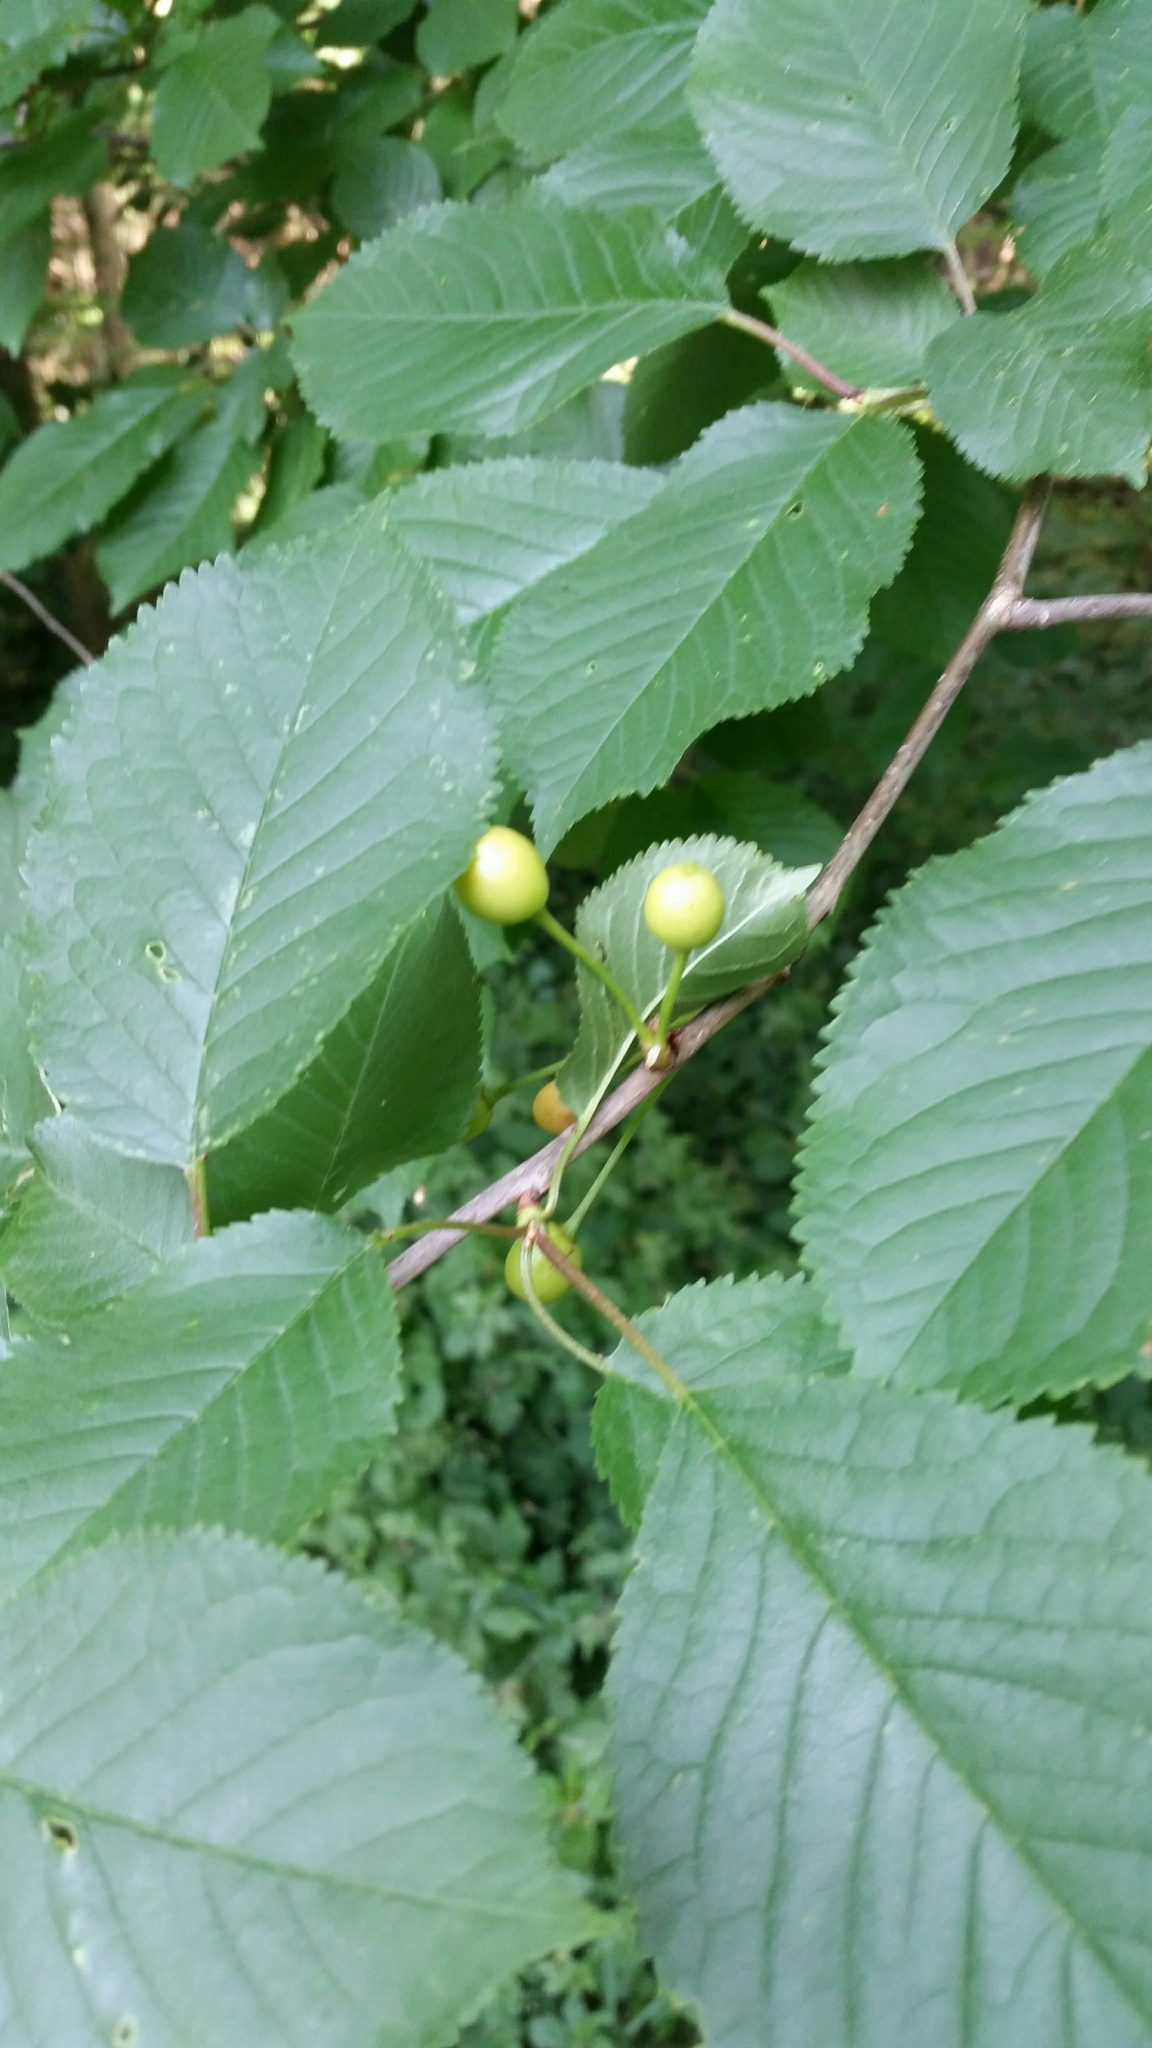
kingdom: Plantae
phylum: Tracheophyta
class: Magnoliopsida
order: Rosales
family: Rosaceae
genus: Prunus
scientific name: Prunus avium
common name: Sweet cherry
